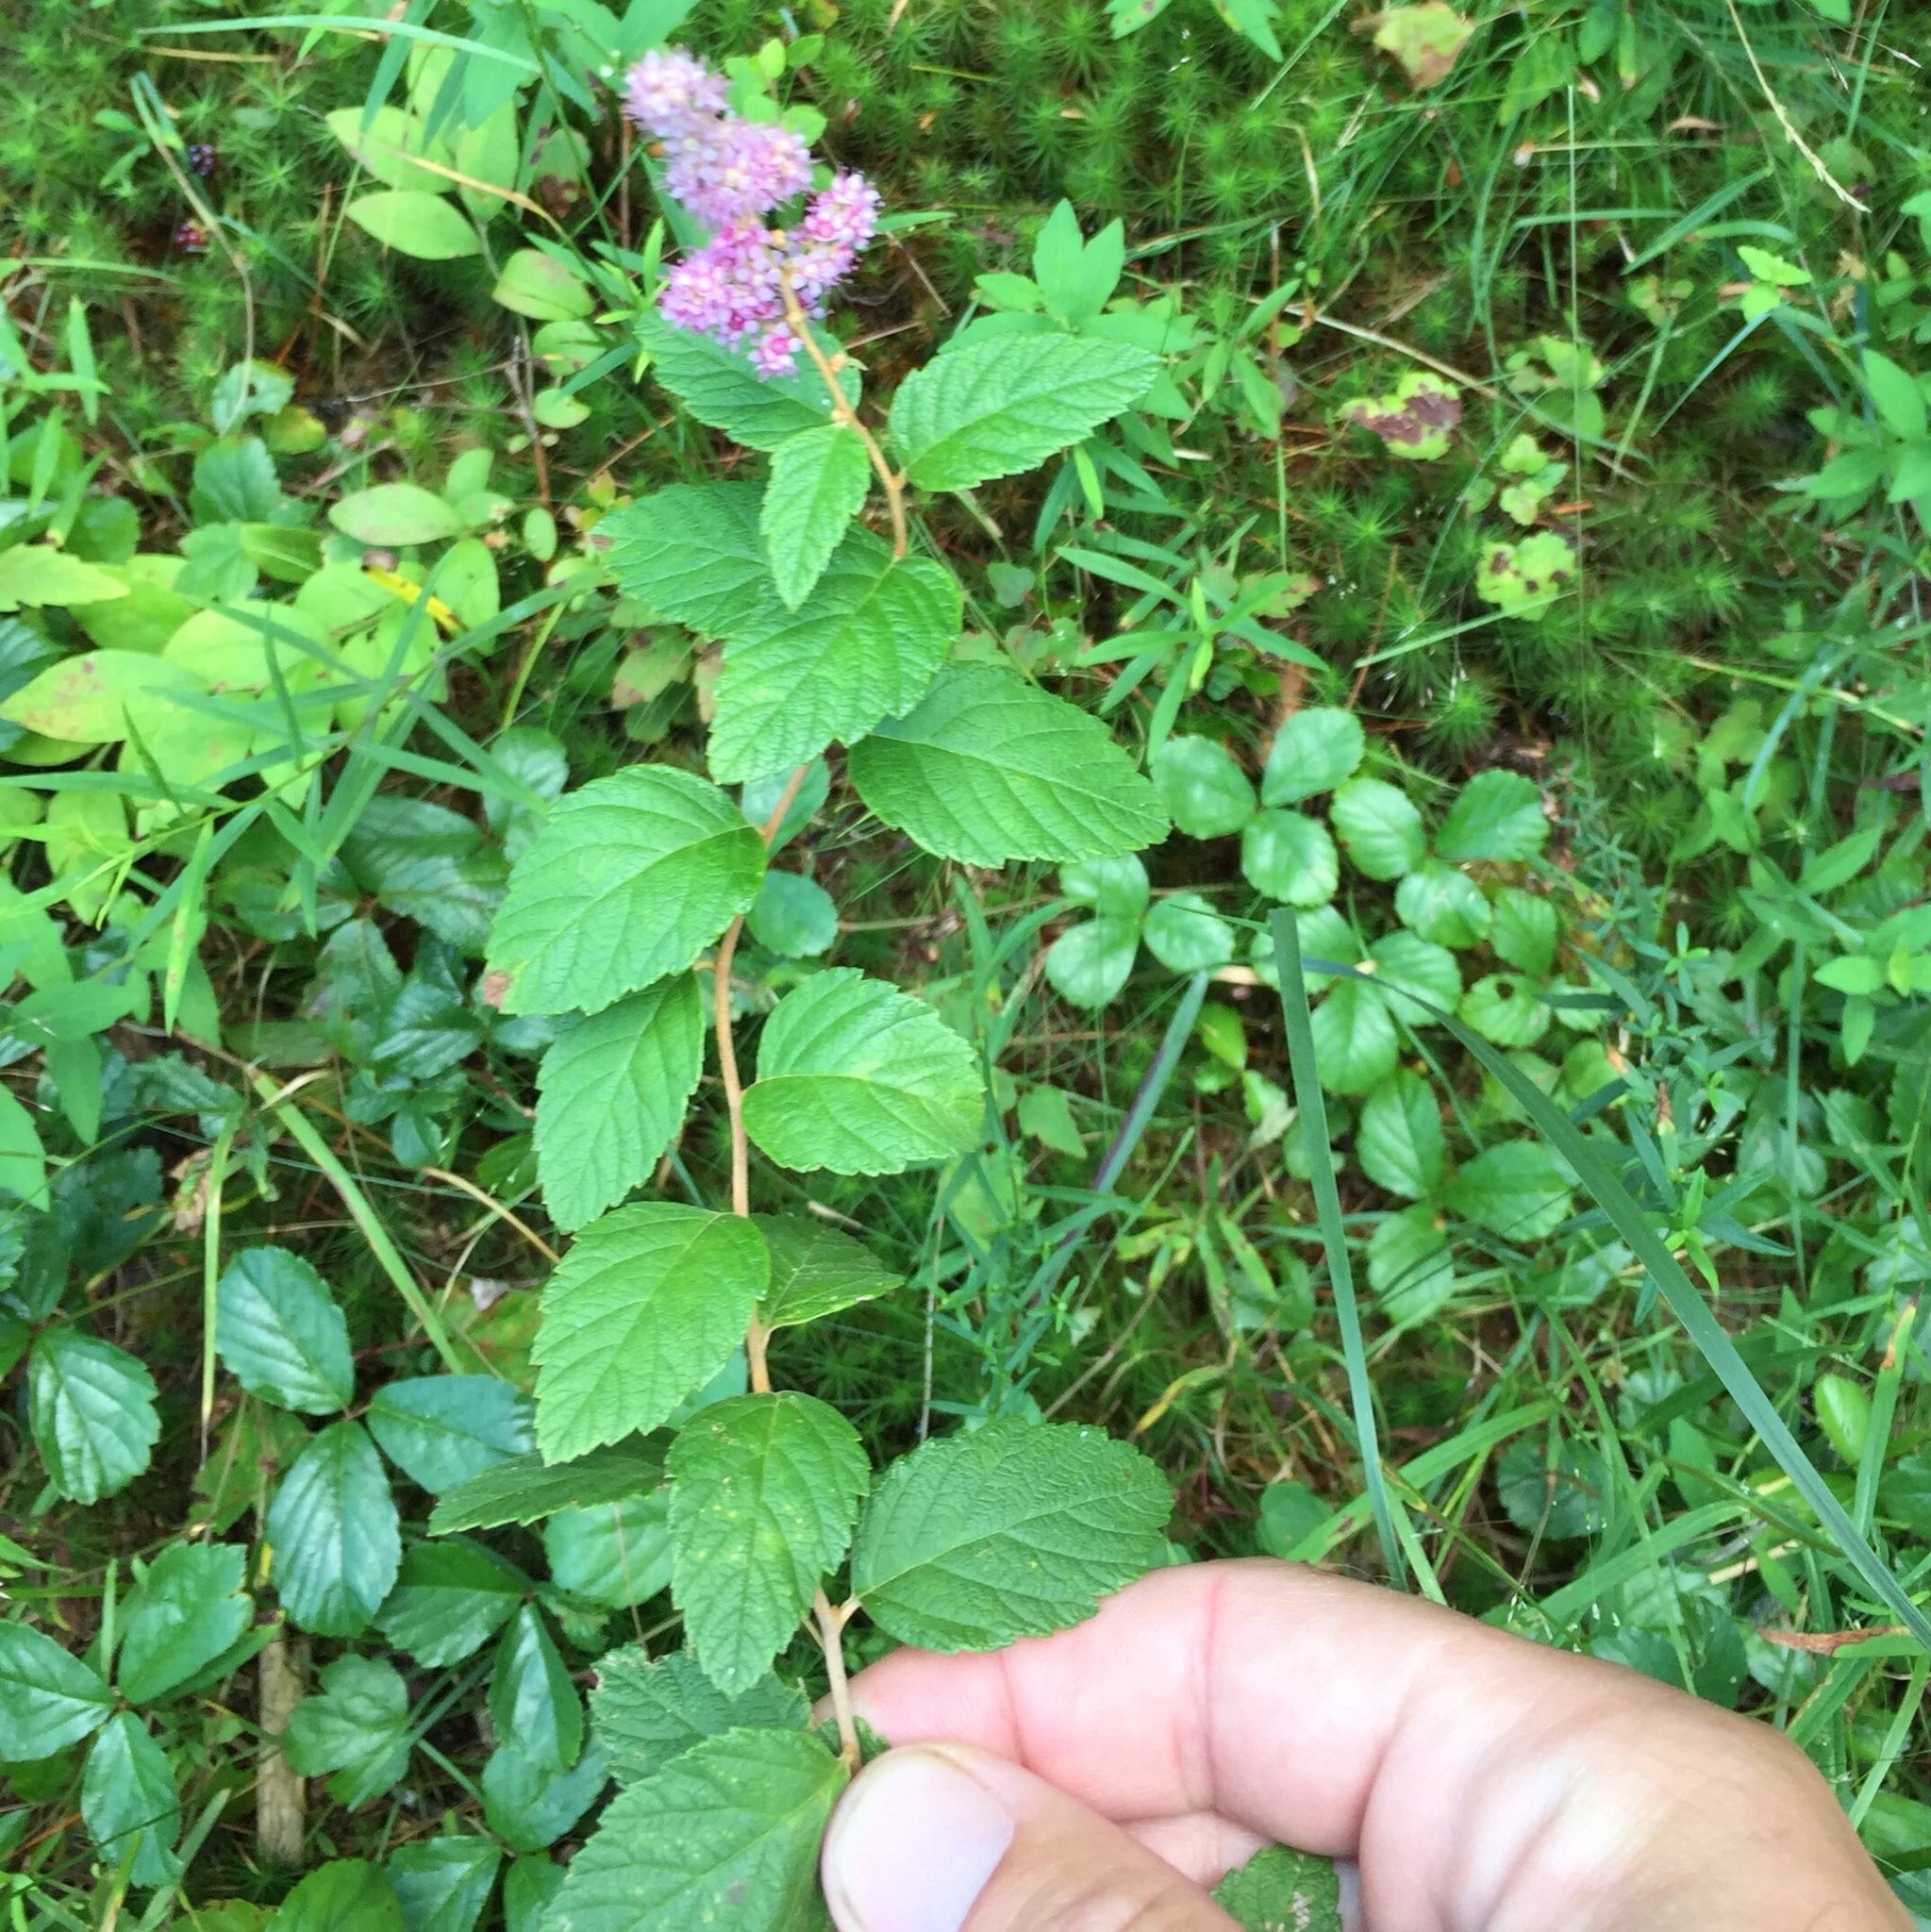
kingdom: Plantae
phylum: Tracheophyta
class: Magnoliopsida
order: Rosales
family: Rosaceae
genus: Spiraea
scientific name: Spiraea tomentosa
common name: Hardhack
